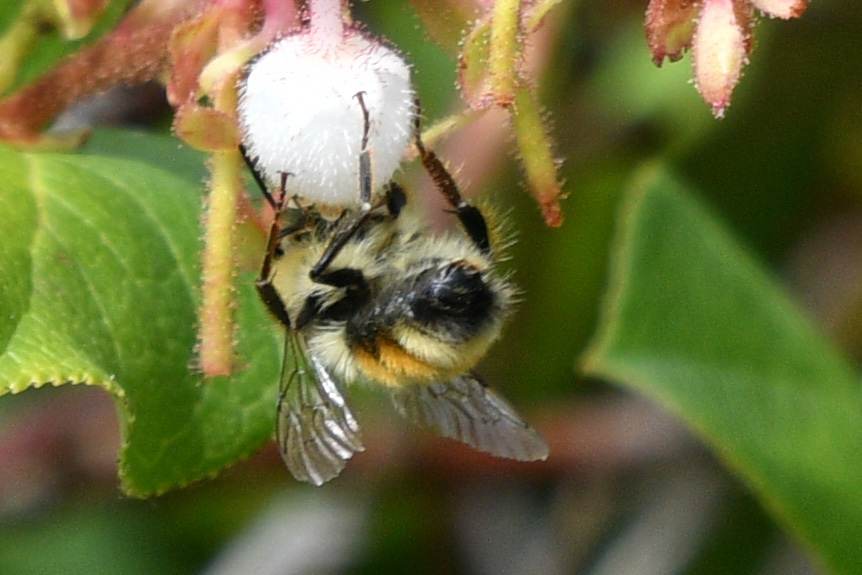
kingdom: Animalia
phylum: Arthropoda
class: Insecta
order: Hymenoptera
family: Apidae
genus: Bombus
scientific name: Bombus vancouverensis
